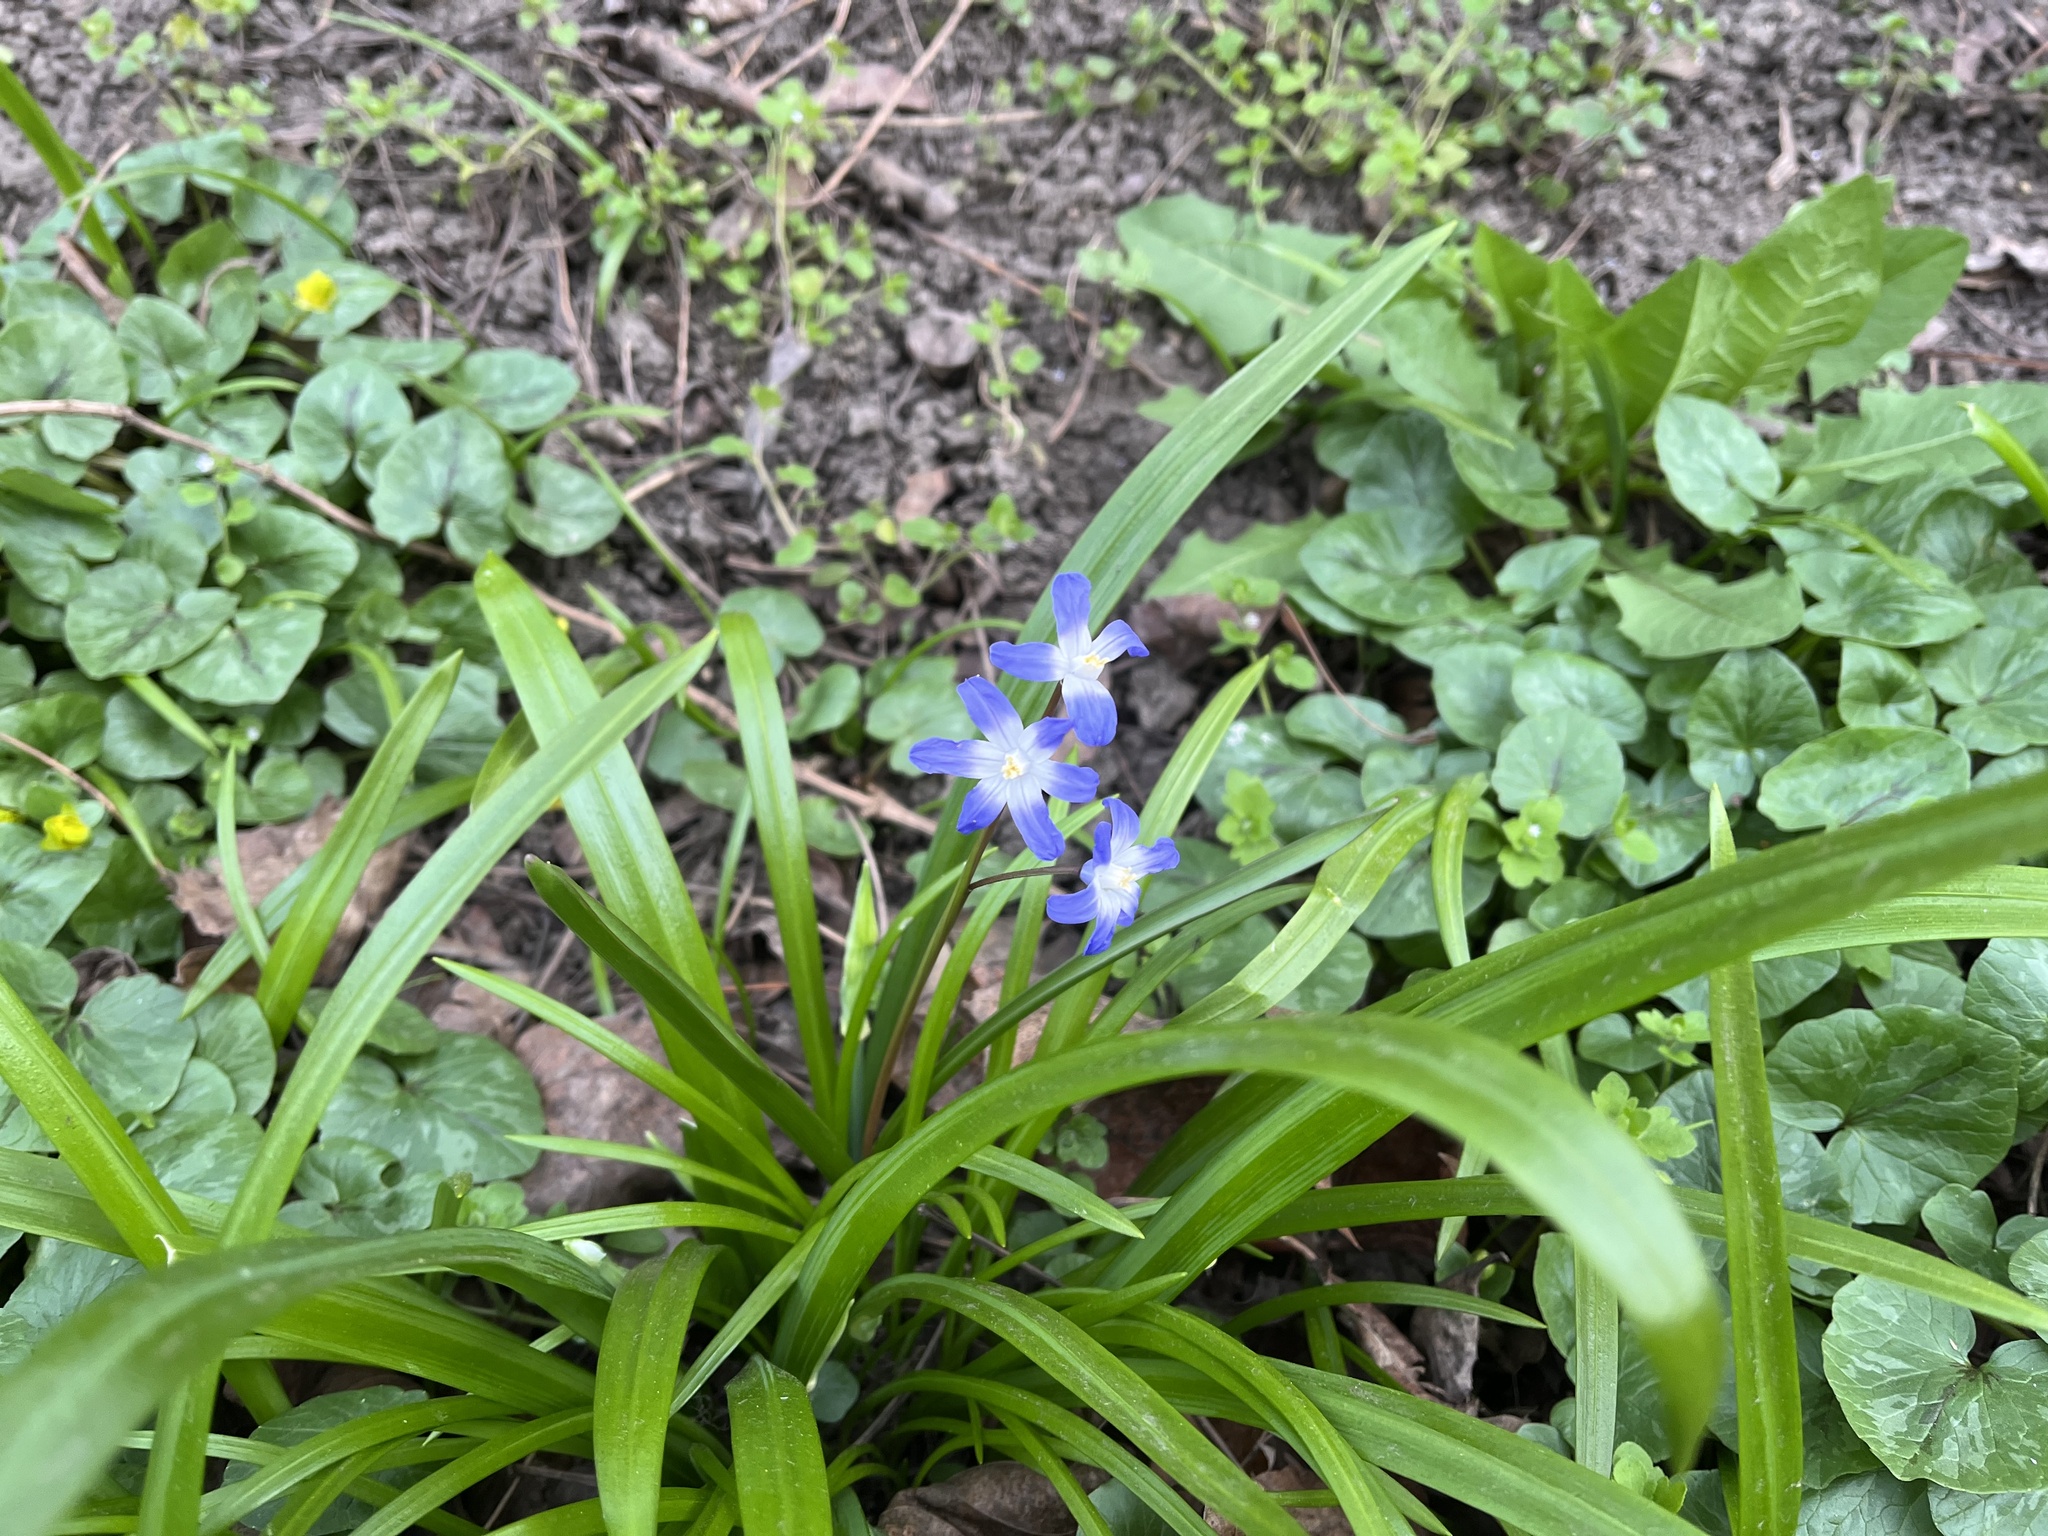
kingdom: Plantae
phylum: Tracheophyta
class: Liliopsida
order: Asparagales
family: Asparagaceae
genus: Scilla
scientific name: Scilla forbesii
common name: Glory-of-the-snow
